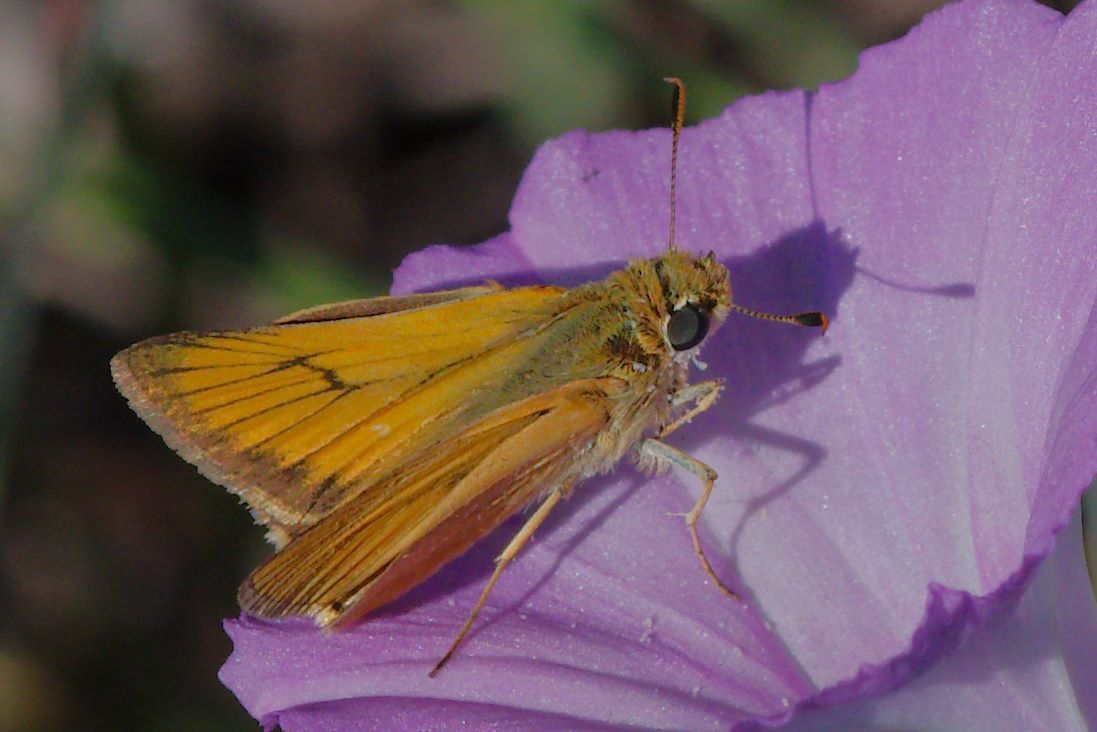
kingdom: Animalia
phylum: Arthropoda
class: Insecta
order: Lepidoptera
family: Hesperiidae
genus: Atrytone
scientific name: Atrytone delaware
